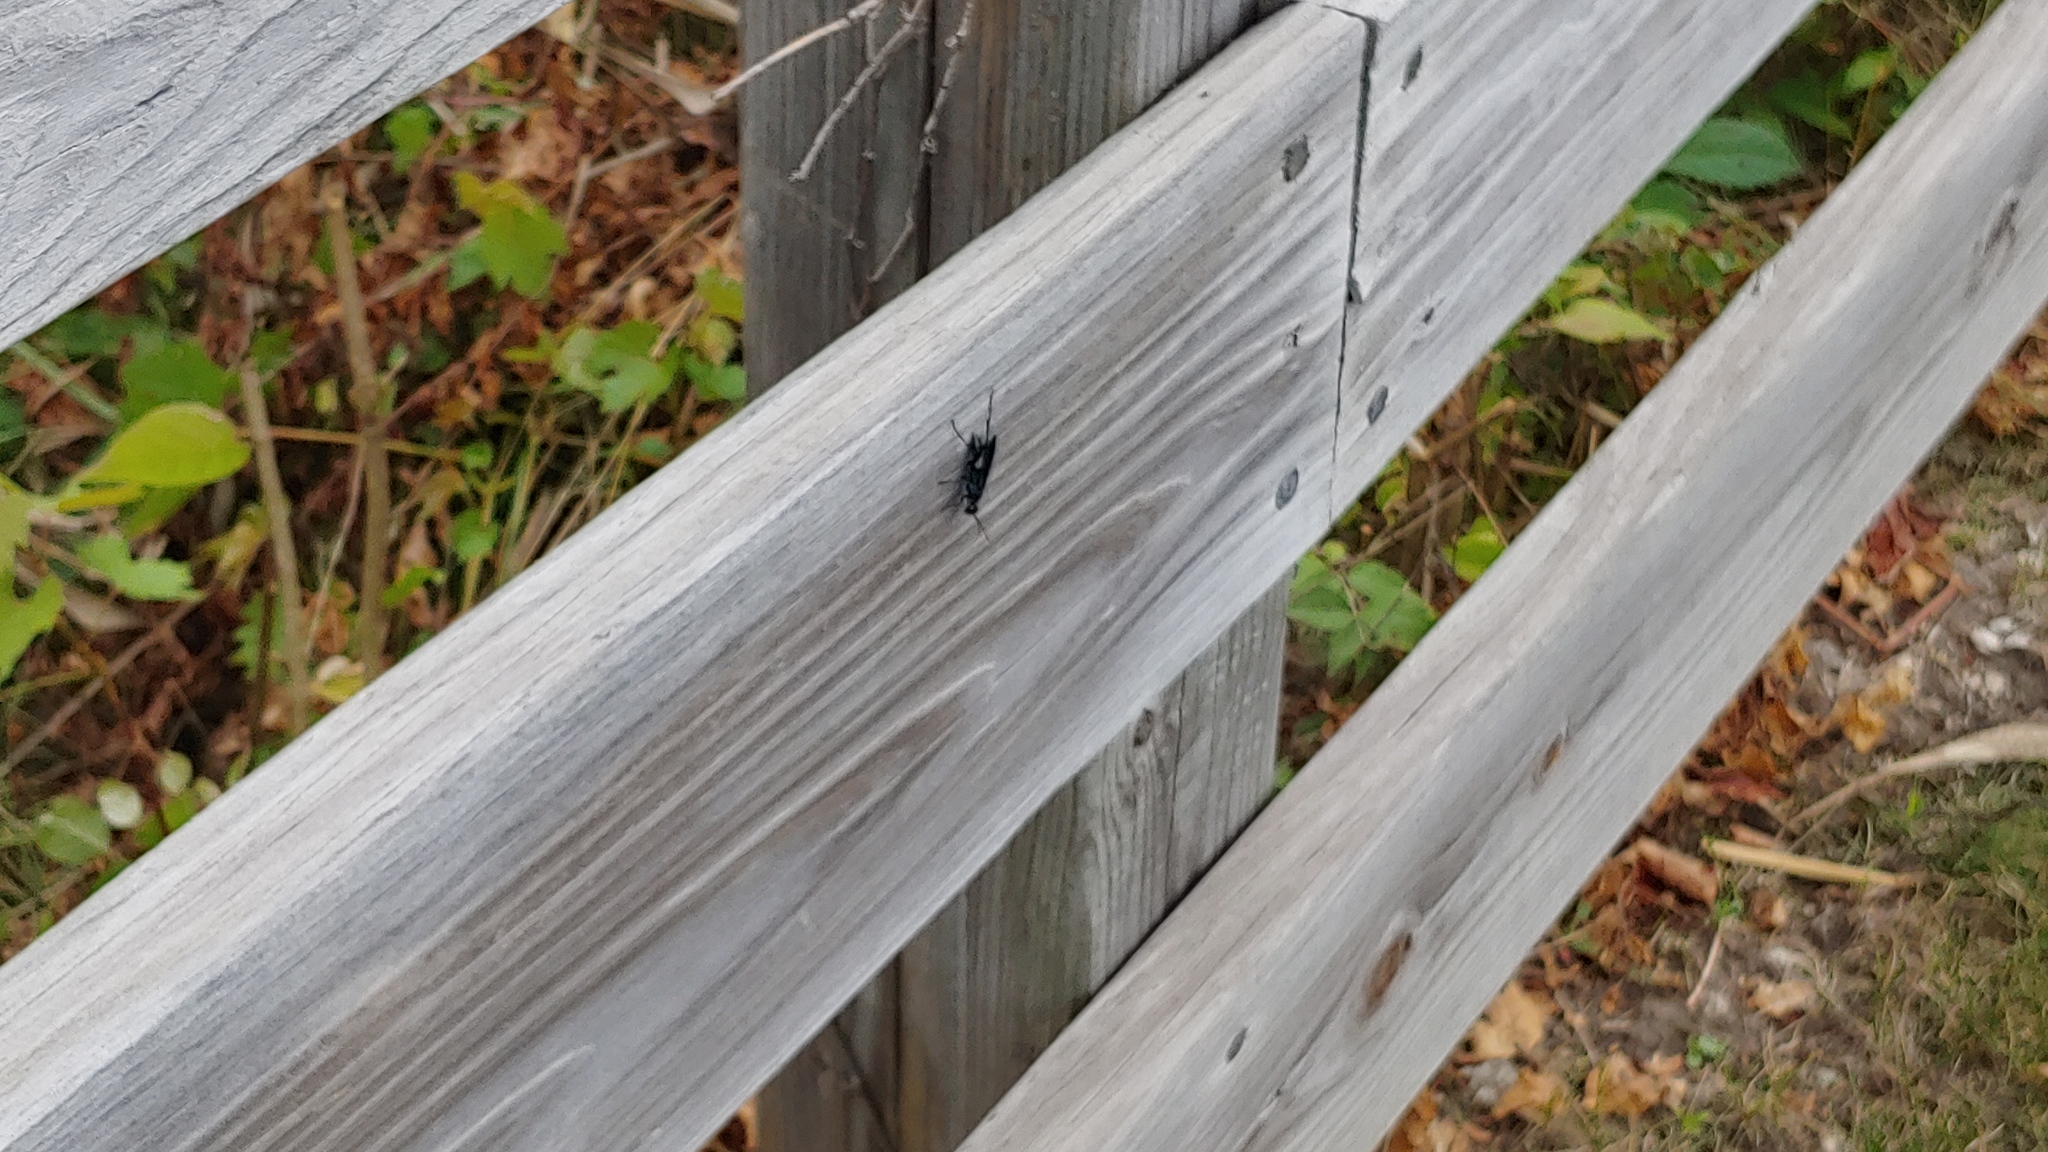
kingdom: Animalia
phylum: Arthropoda
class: Insecta
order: Hymenoptera
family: Sphecidae
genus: Chalybion
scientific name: Chalybion californicum
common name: Mud dauber
